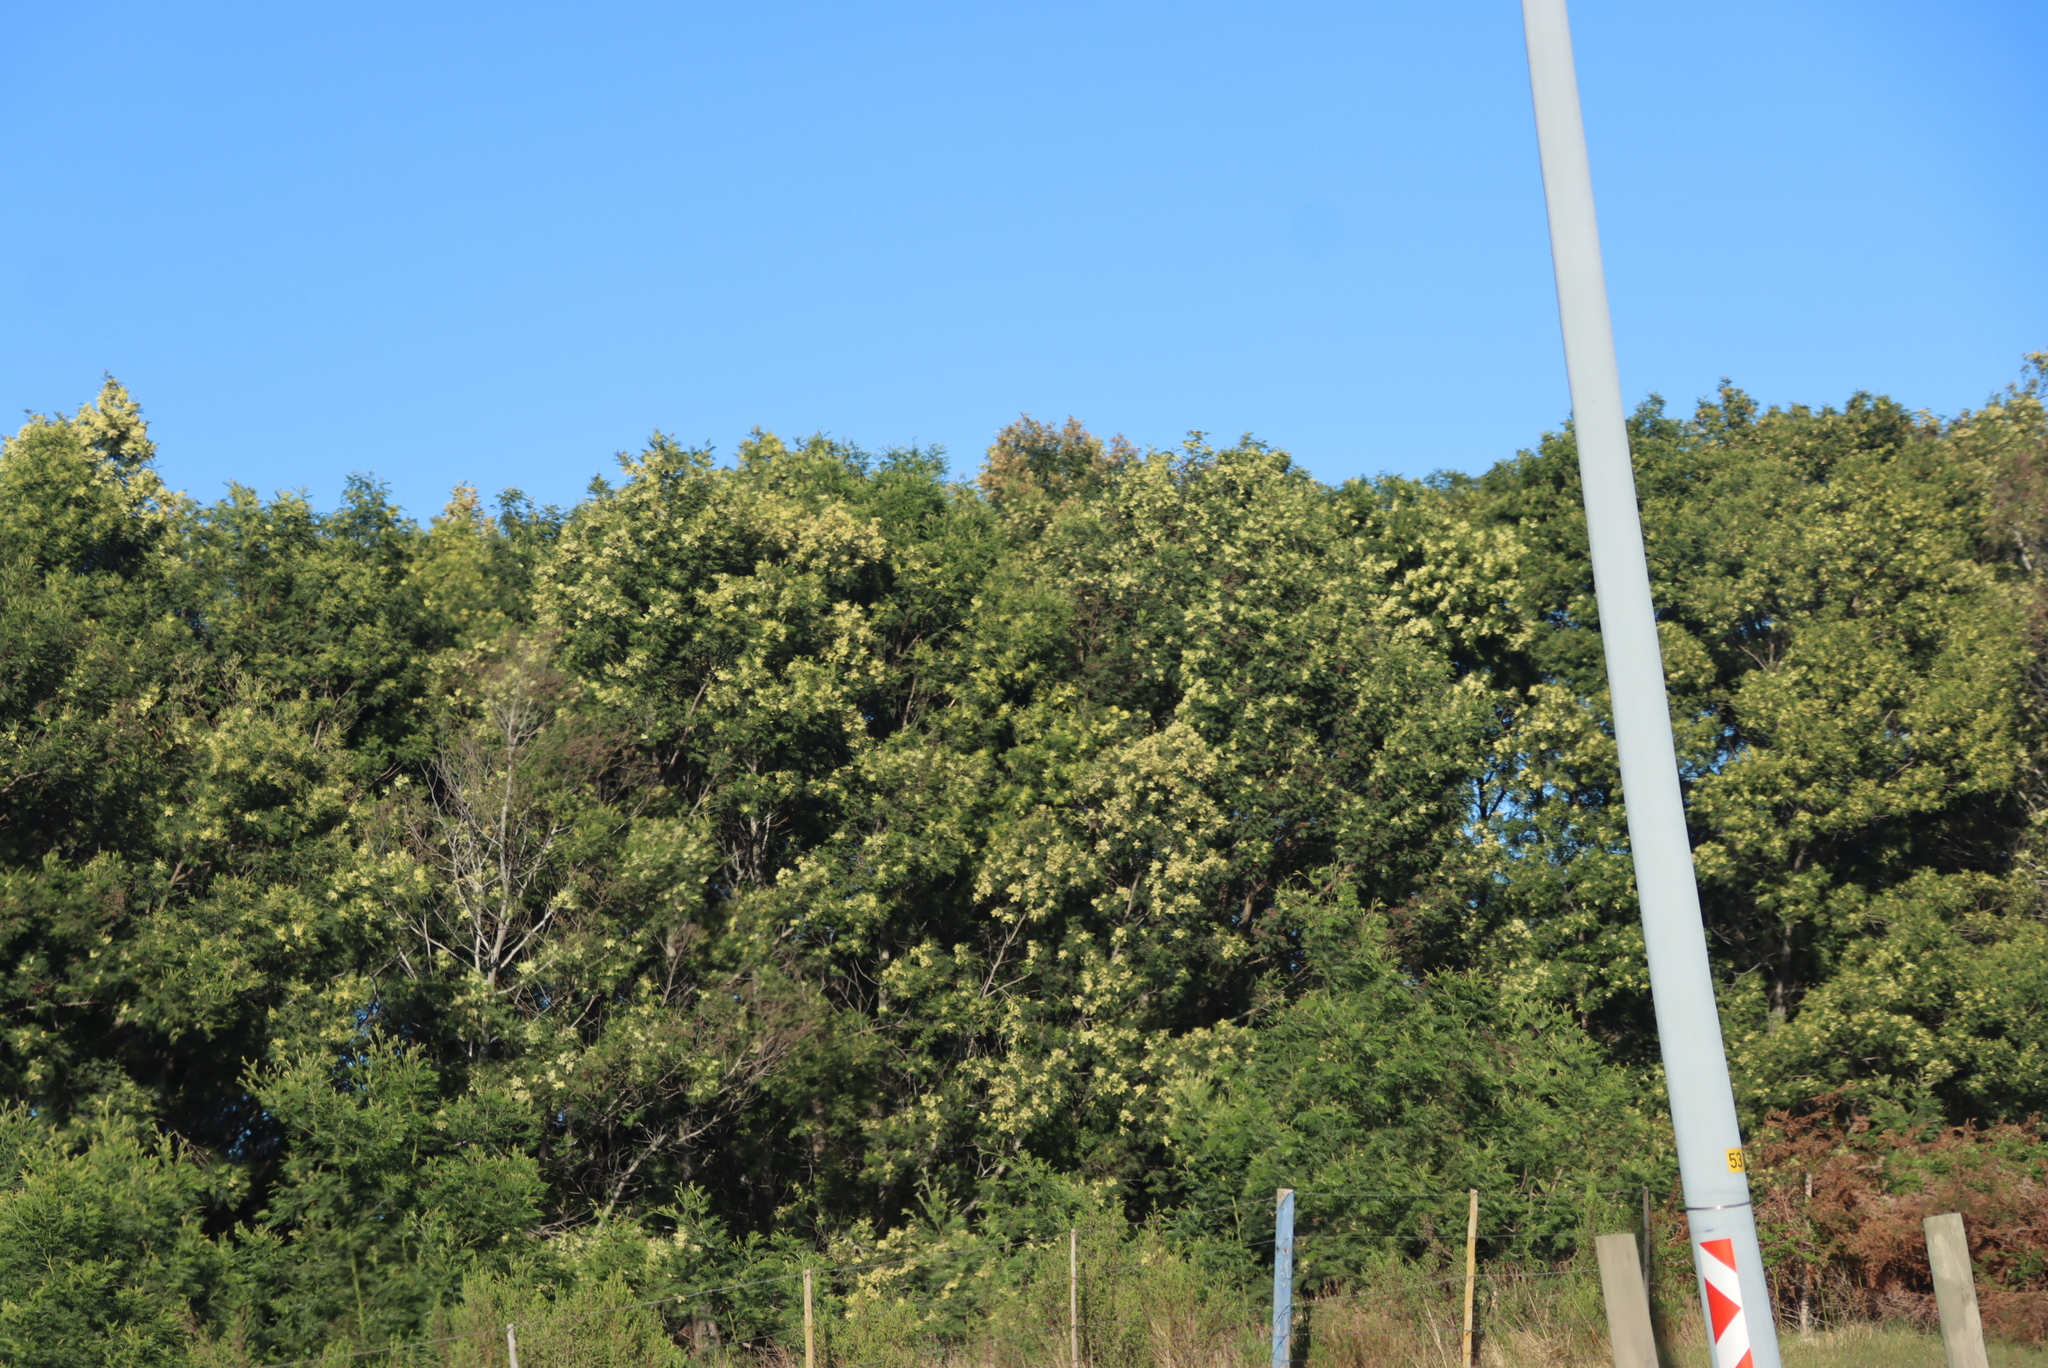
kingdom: Plantae
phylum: Tracheophyta
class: Magnoliopsida
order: Fabales
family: Fabaceae
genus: Acacia
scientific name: Acacia melanoxylon
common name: Blackwood
